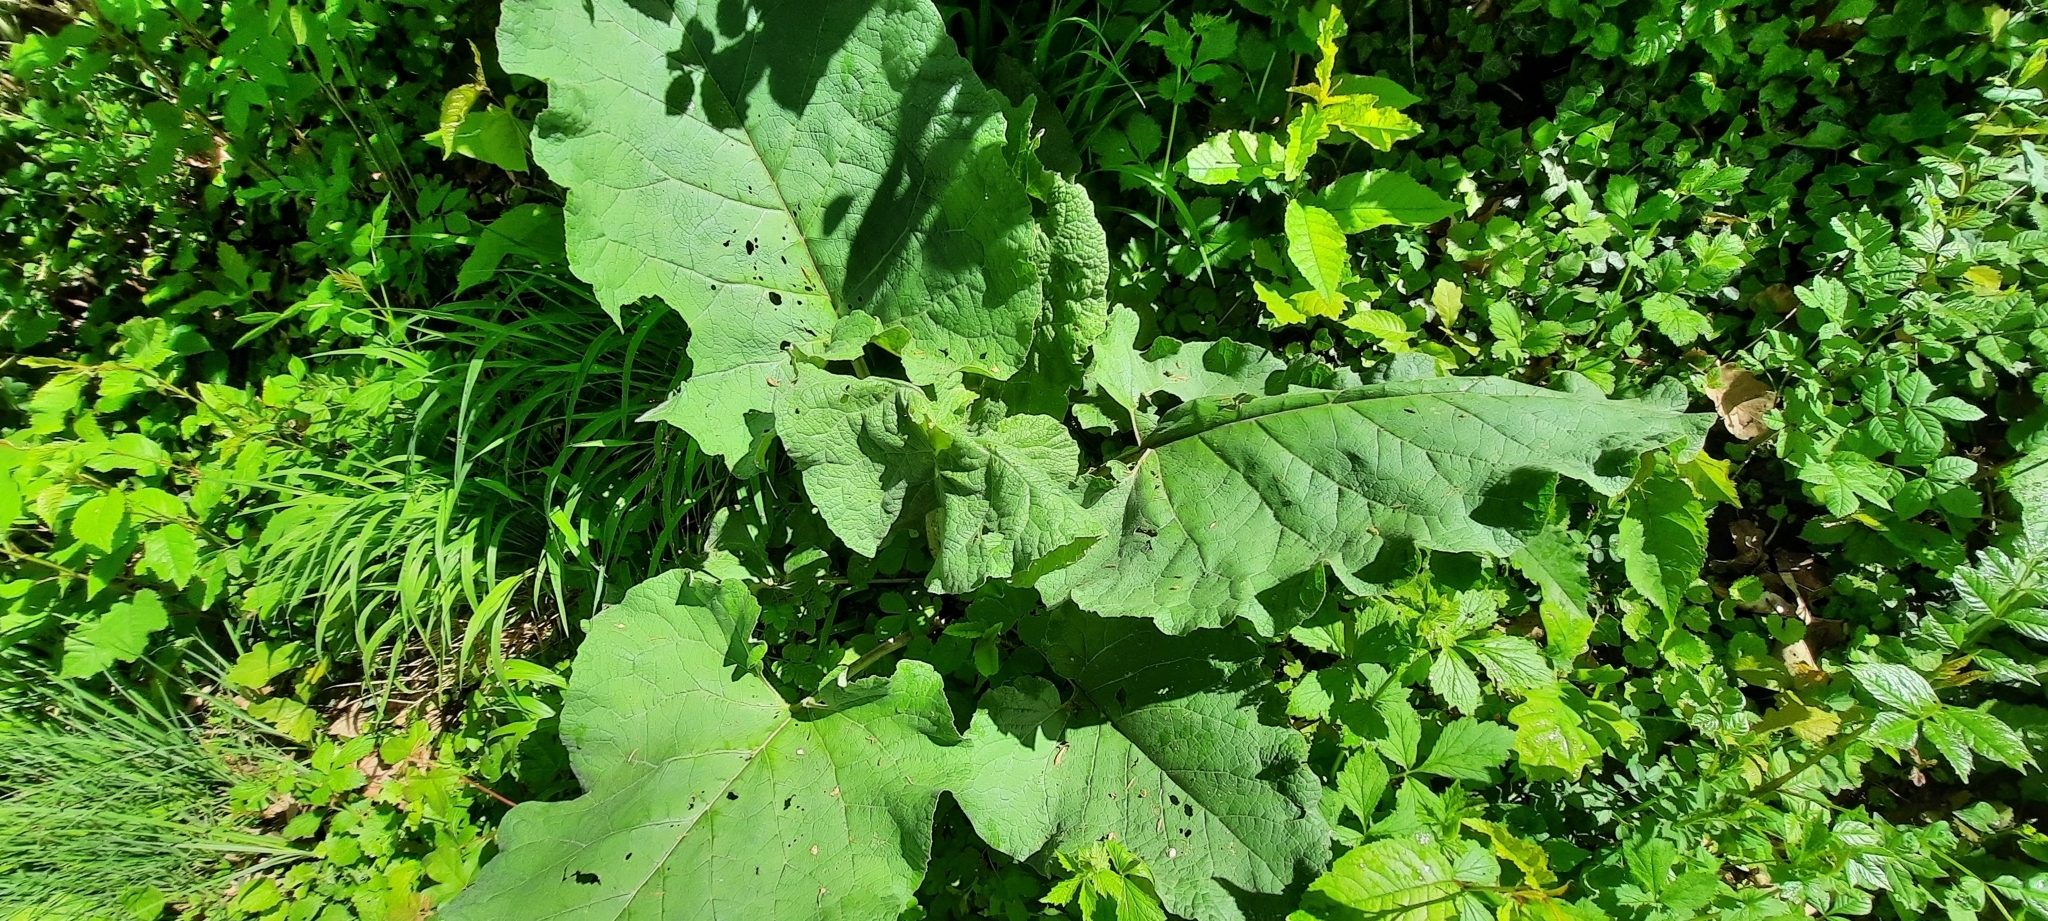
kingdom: Plantae
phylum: Tracheophyta
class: Magnoliopsida
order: Asterales
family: Asteraceae
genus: Arctium
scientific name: Arctium lappa
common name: Greater burdock
